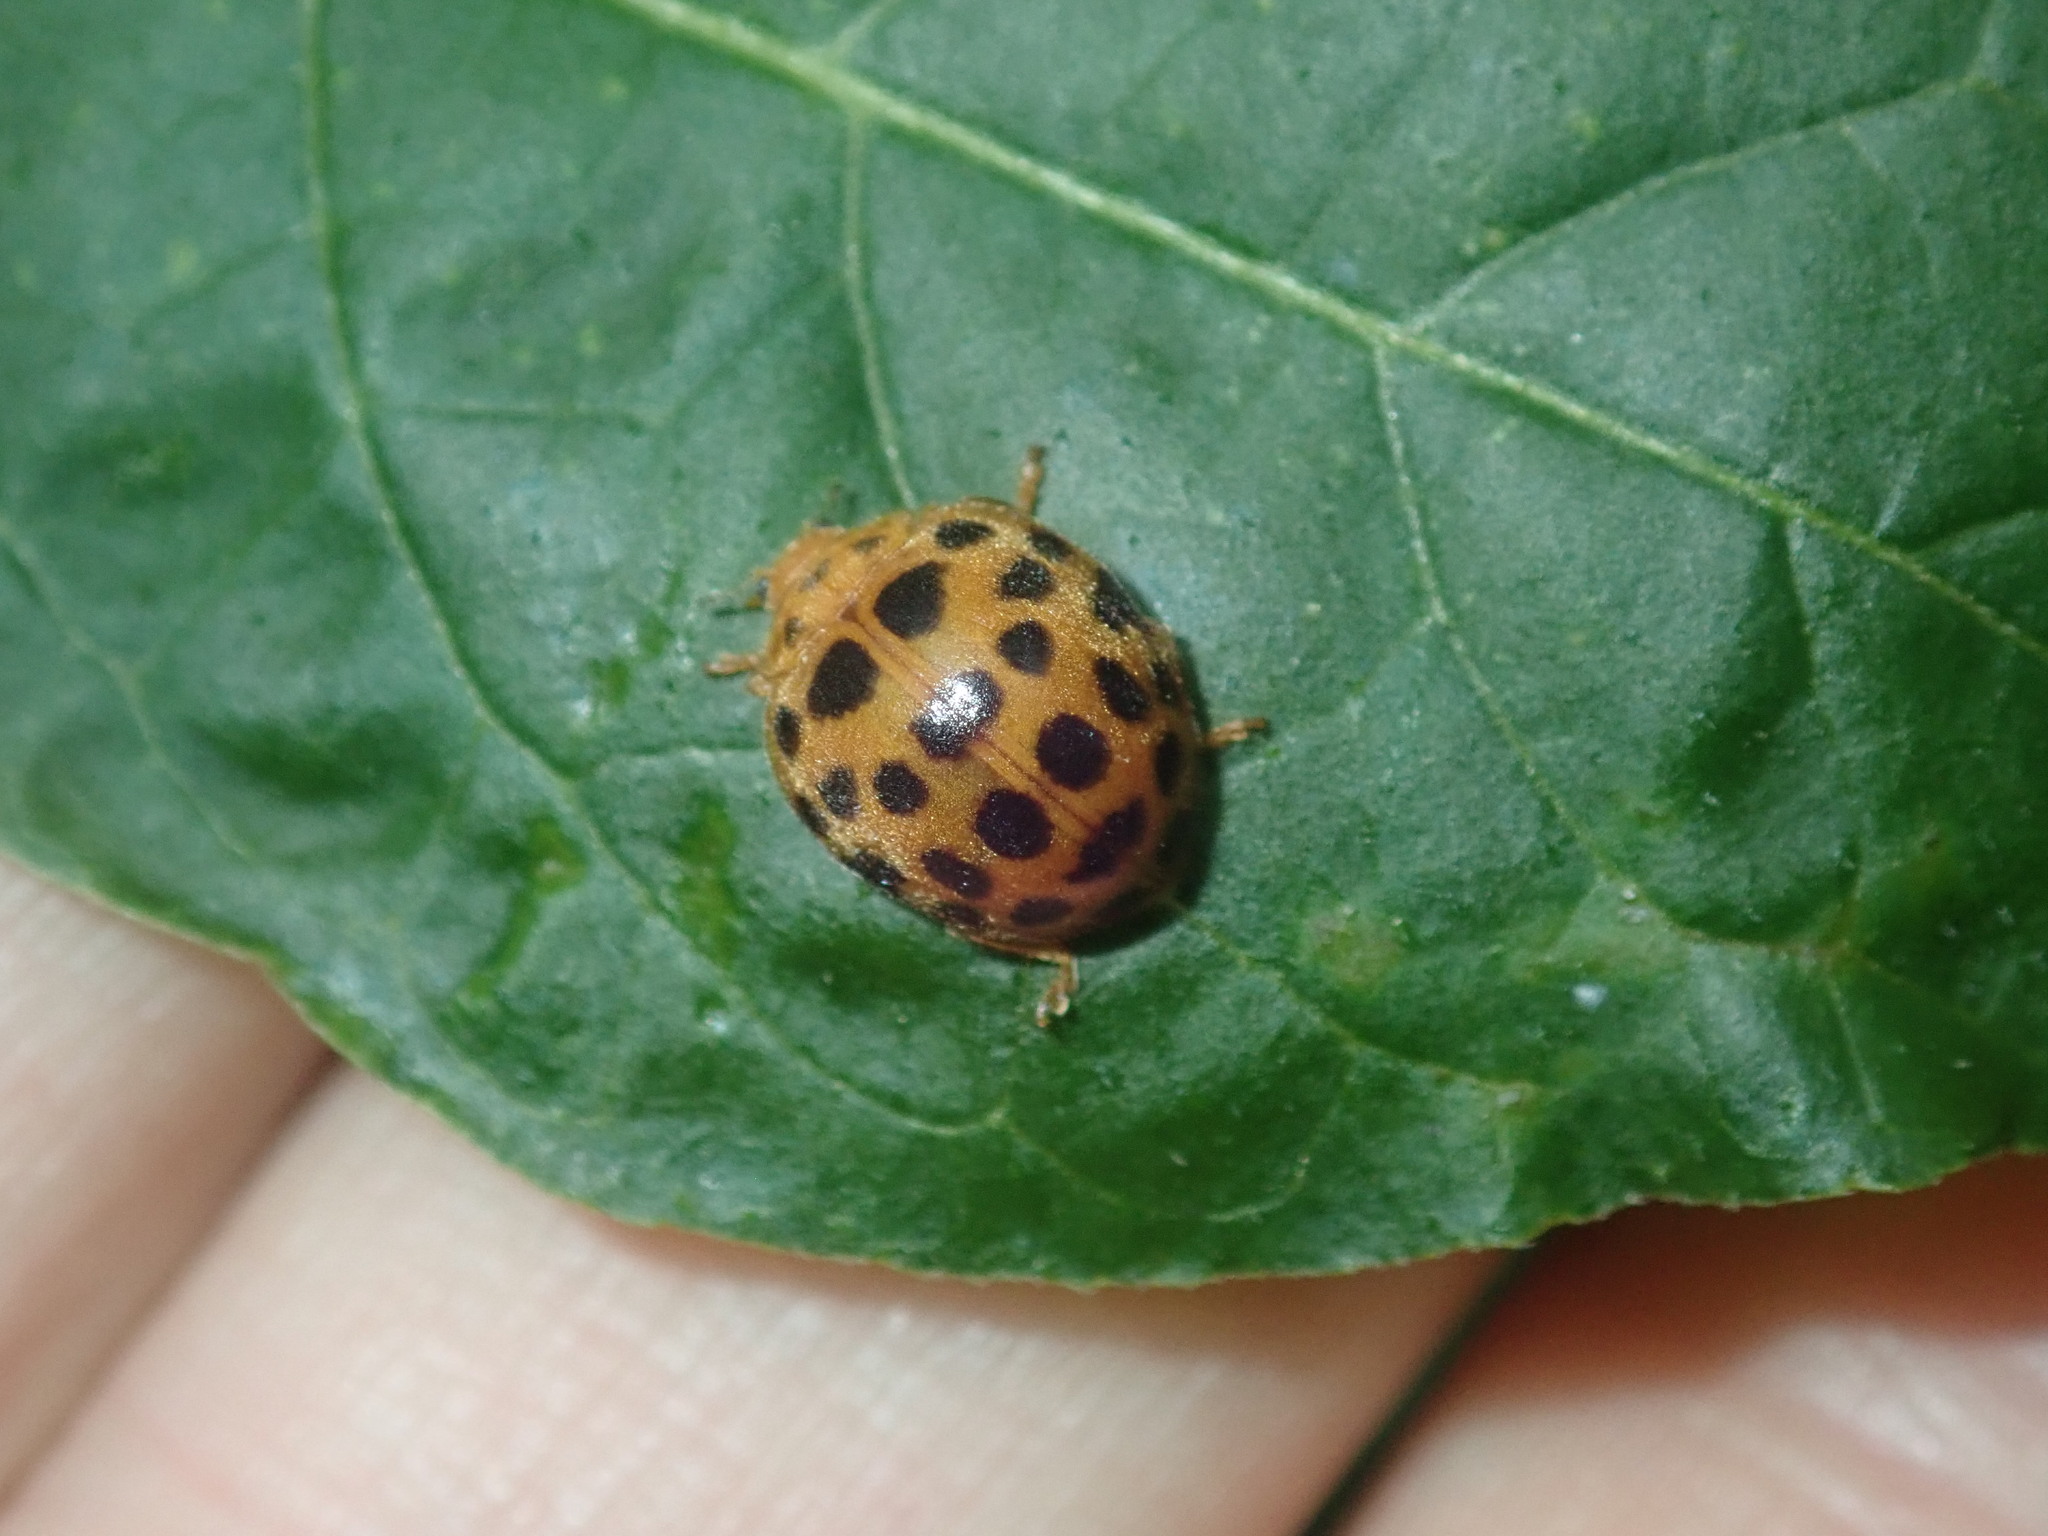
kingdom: Animalia
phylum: Arthropoda
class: Insecta
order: Coleoptera
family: Coccinellidae
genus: Henosepilachna
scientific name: Henosepilachna vigintioctopunctata
